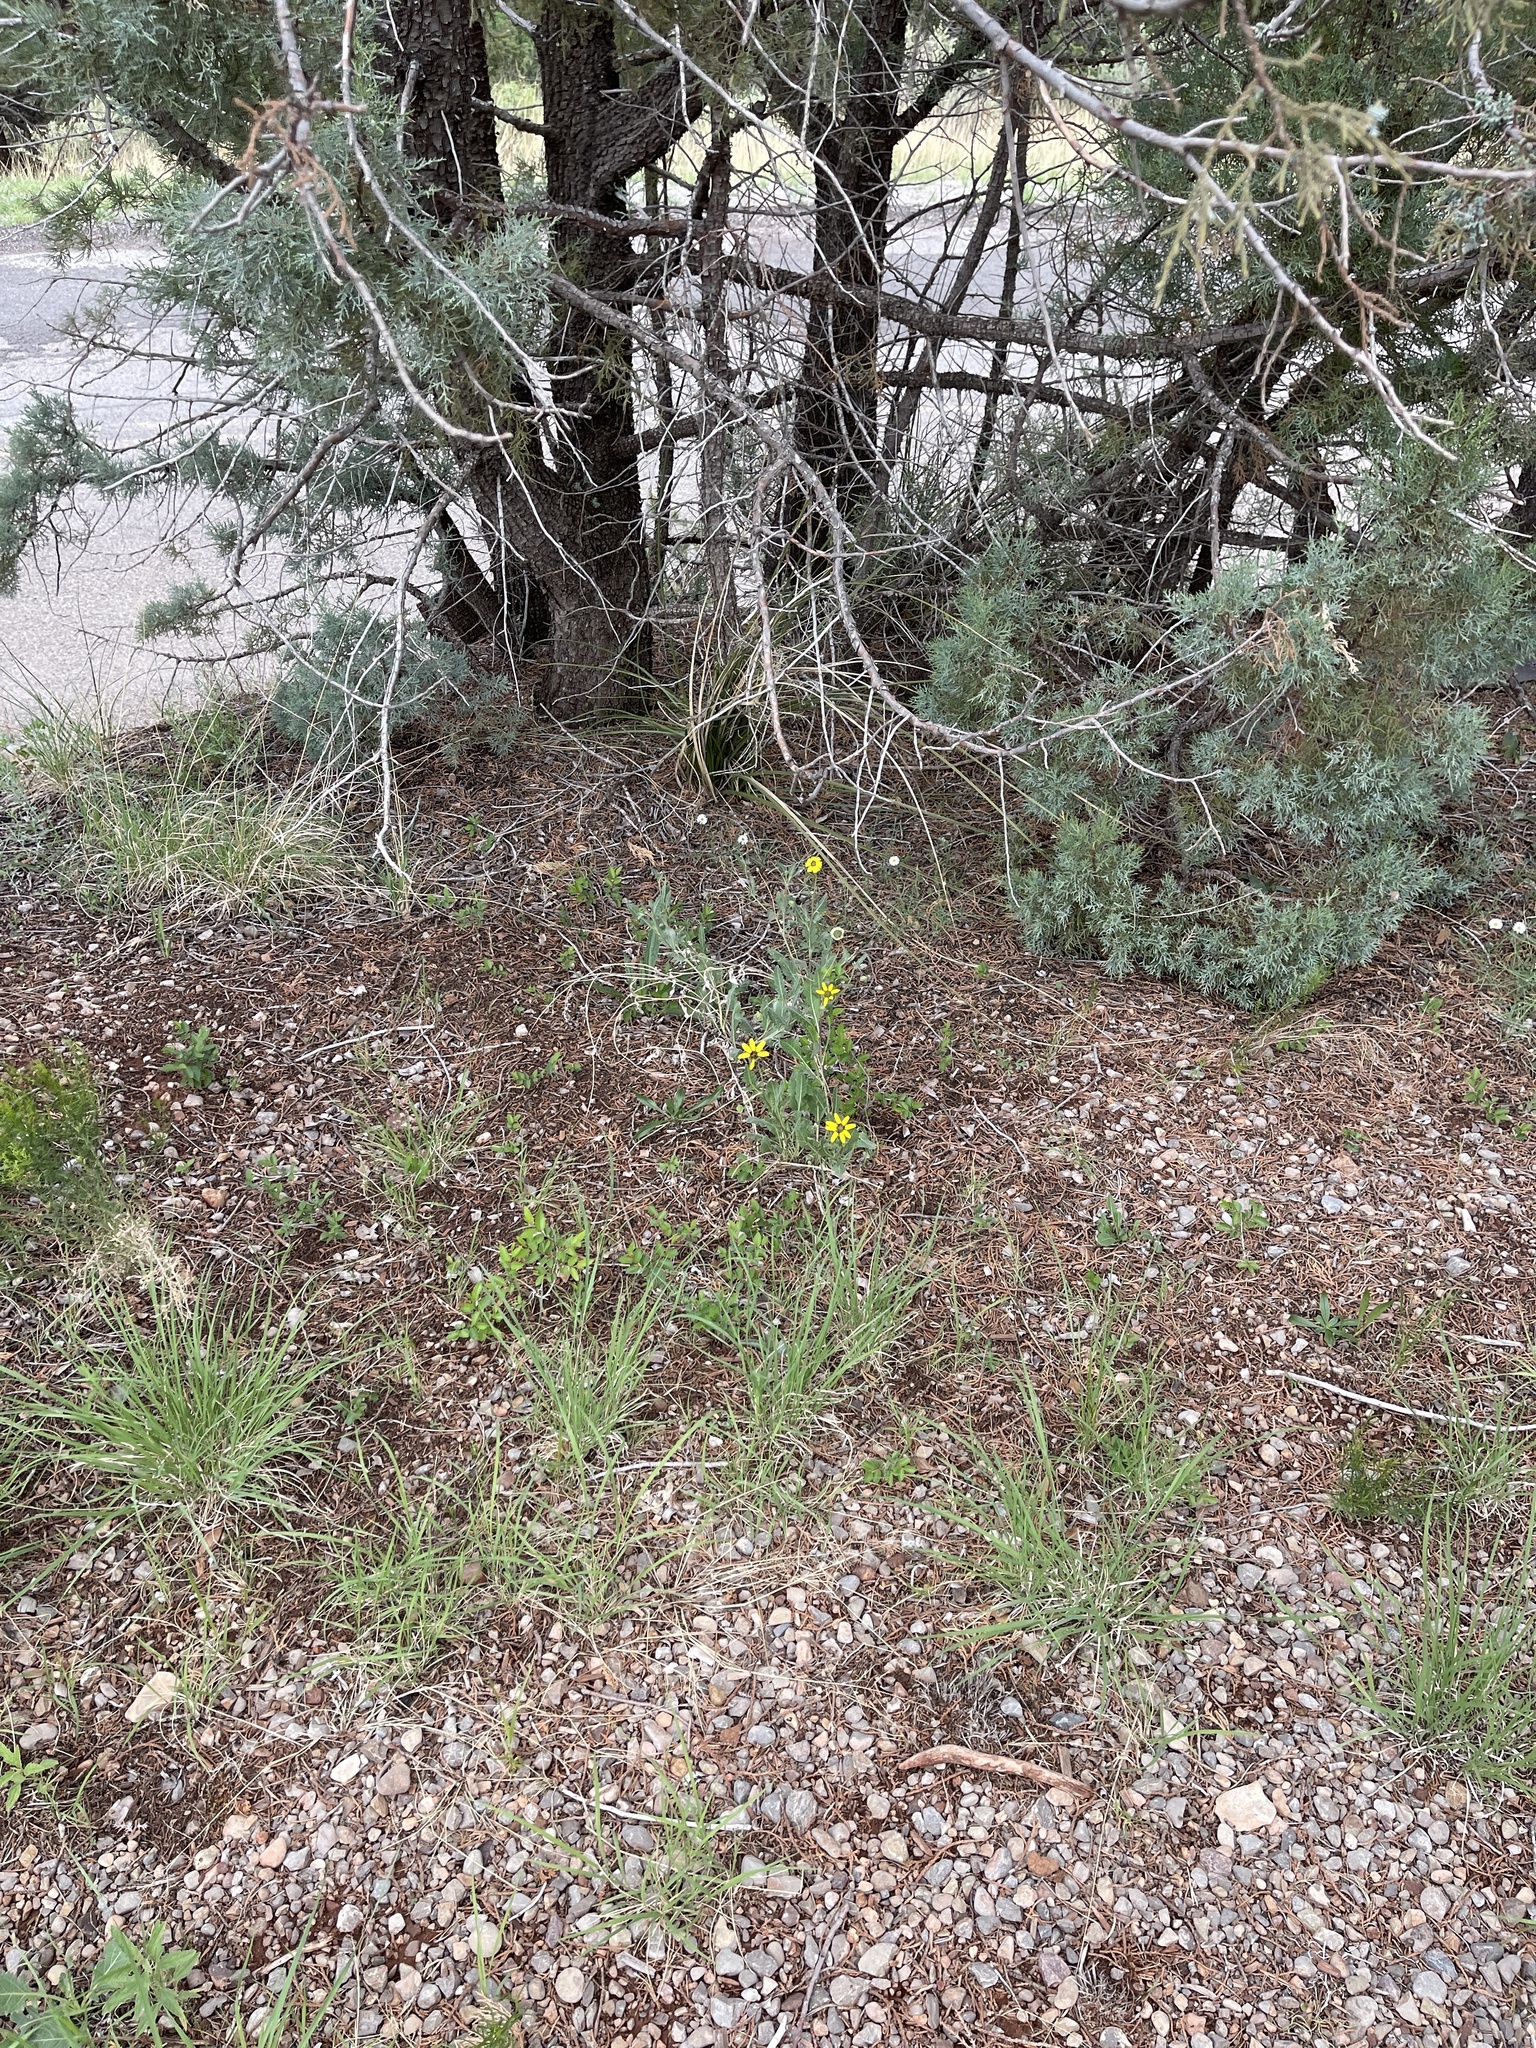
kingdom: Plantae
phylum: Tracheophyta
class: Magnoliopsida
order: Asterales
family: Asteraceae
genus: Berlandiera
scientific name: Berlandiera lyrata
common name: Chocolate-flower
